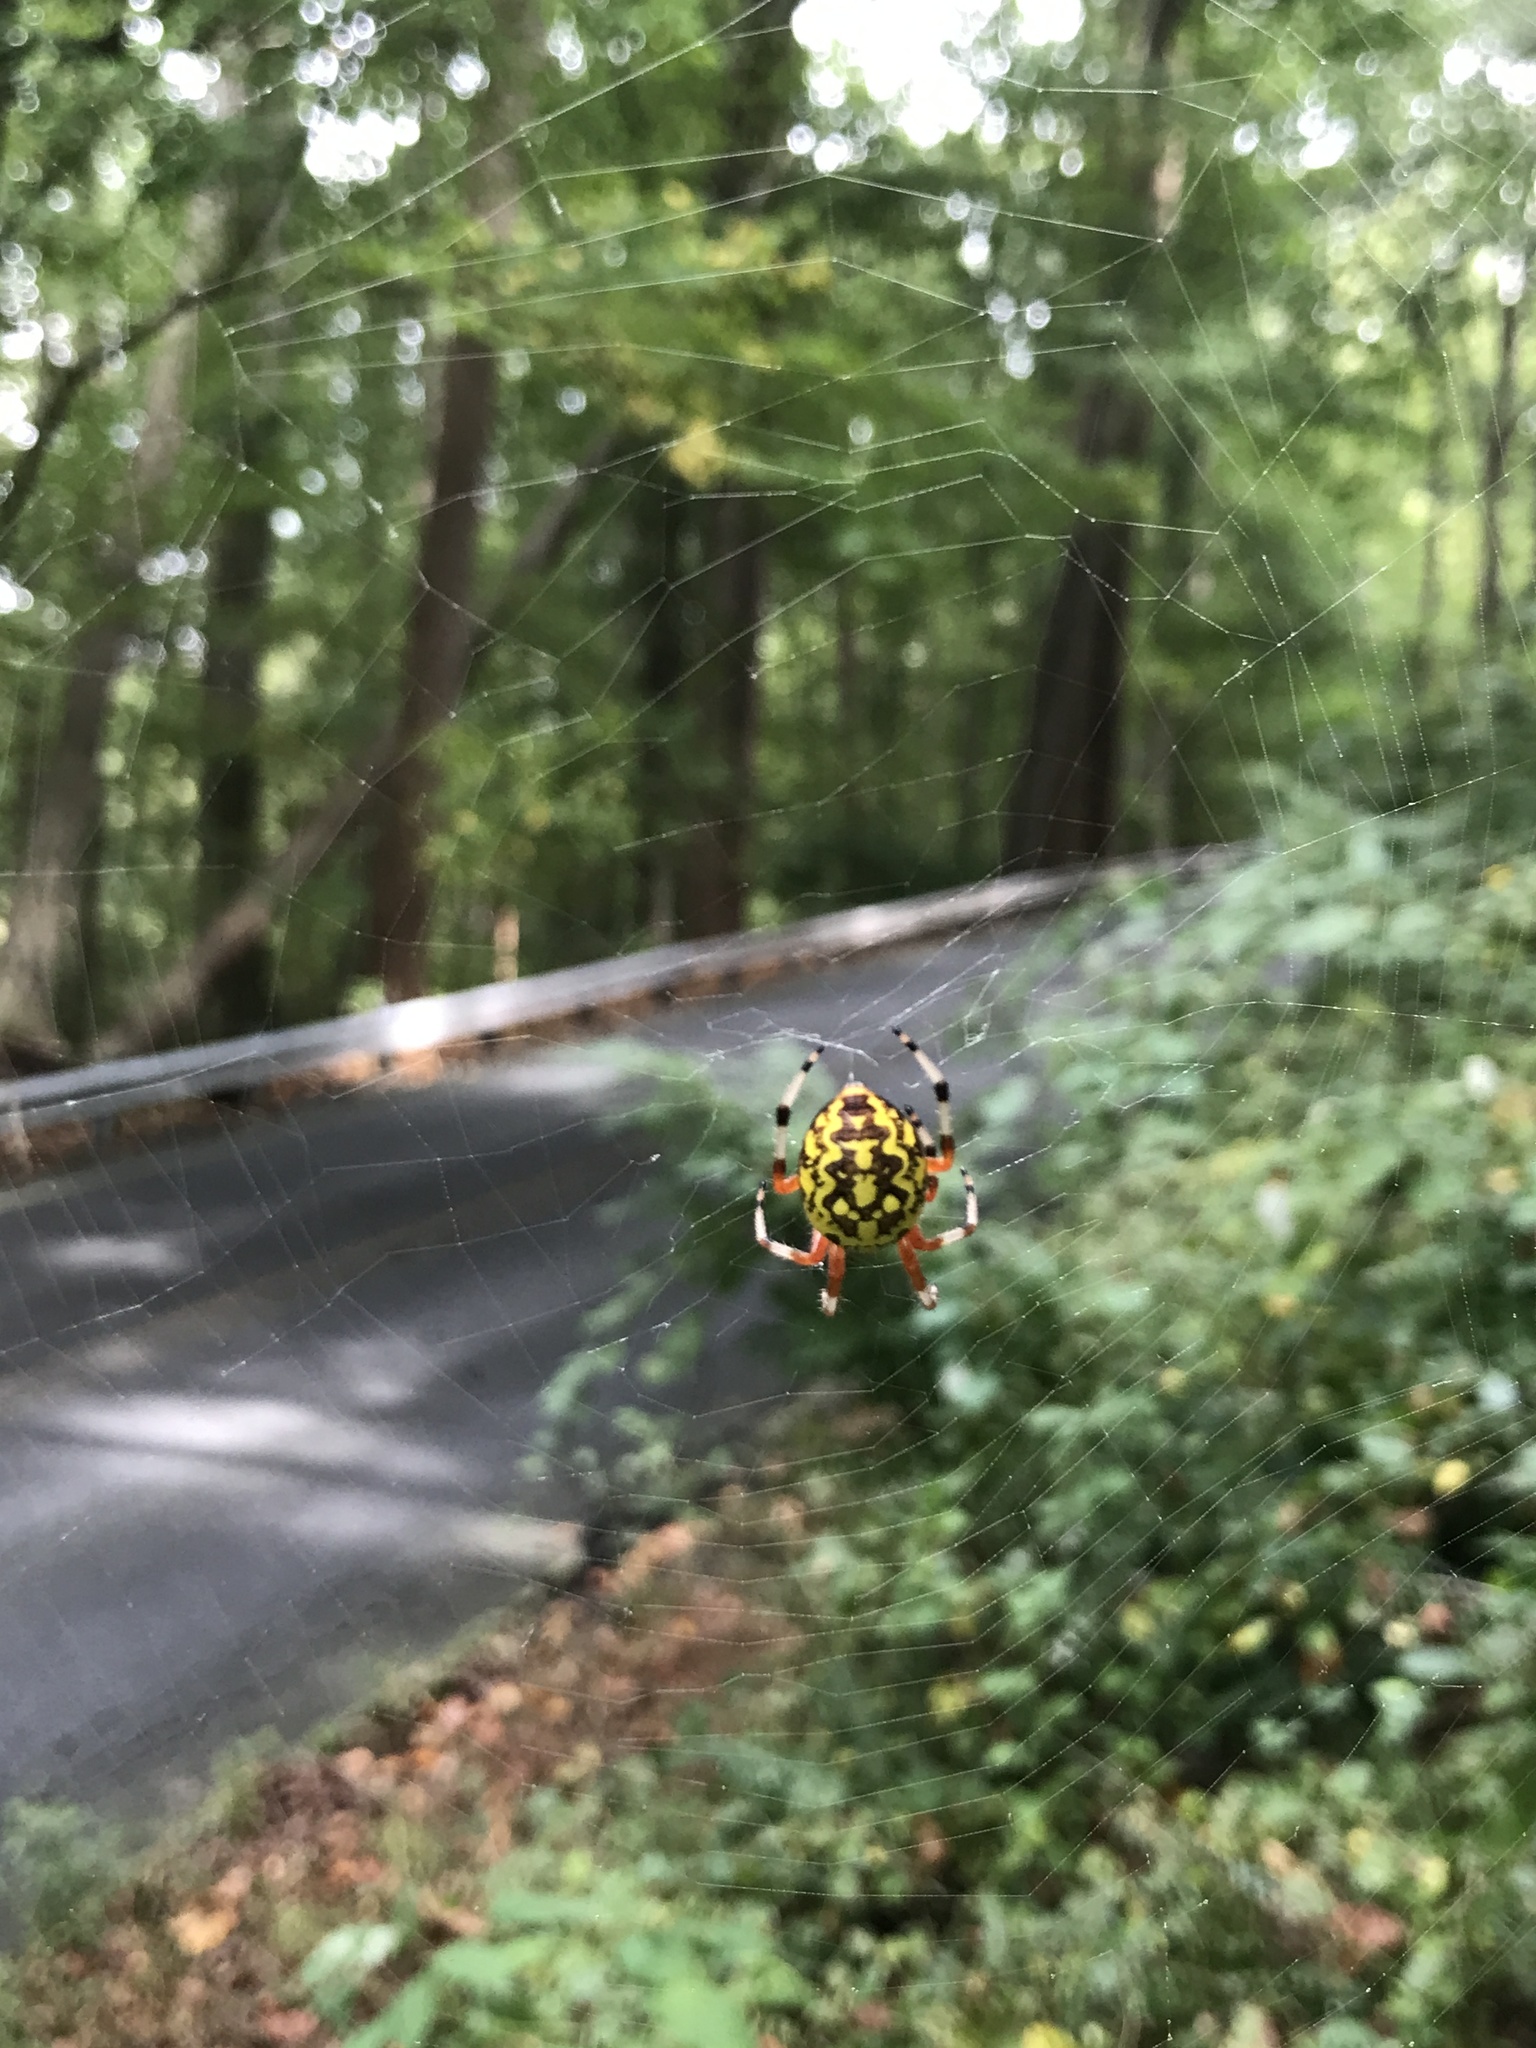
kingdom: Animalia
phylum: Arthropoda
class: Arachnida
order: Araneae
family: Araneidae
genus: Araneus
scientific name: Araneus marmoreus
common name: Marbled orbweaver
